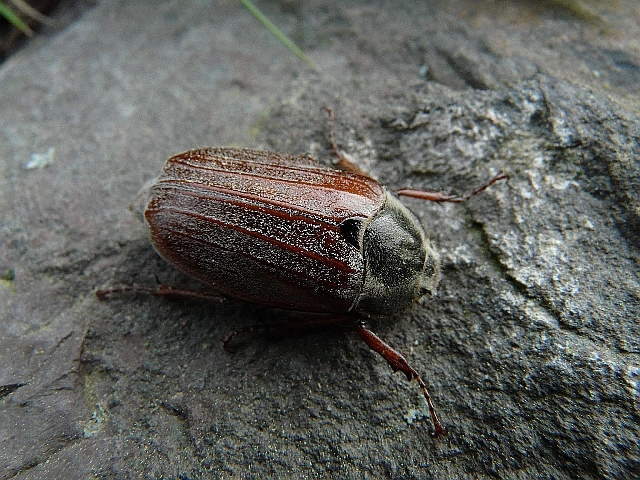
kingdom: Animalia
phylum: Arthropoda
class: Insecta
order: Coleoptera
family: Scarabaeidae
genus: Melolontha
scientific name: Melolontha melolontha
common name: Cockchafer maybeetle
